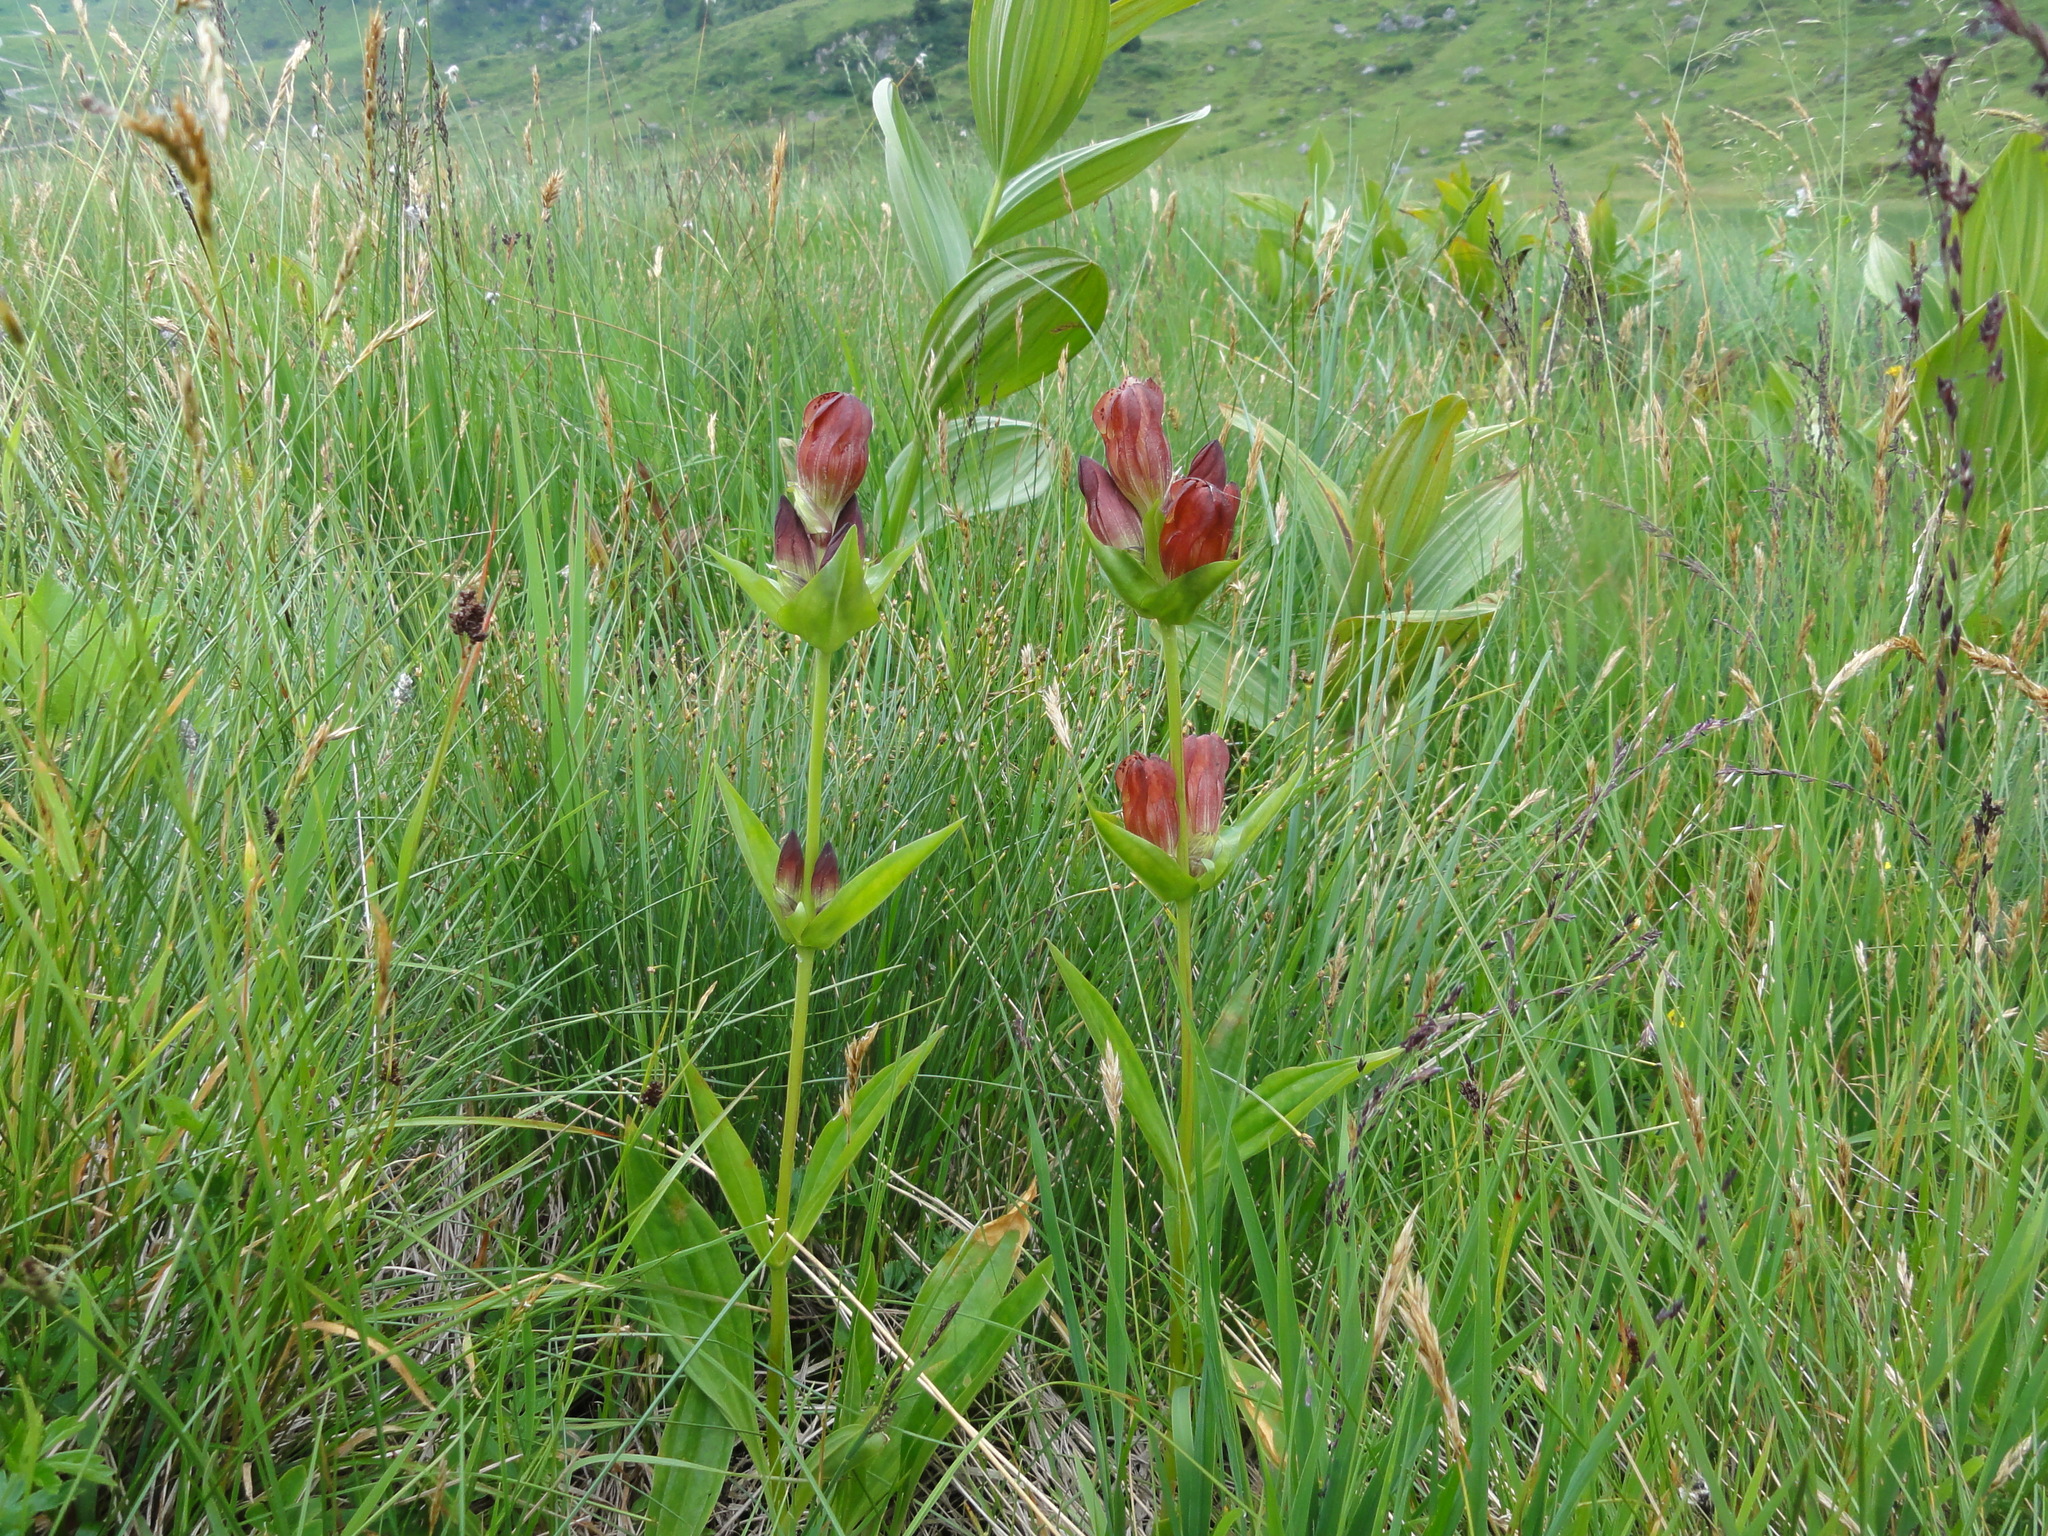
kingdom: Plantae
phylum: Tracheophyta
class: Magnoliopsida
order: Gentianales
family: Gentianaceae
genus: Gentiana
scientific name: Gentiana purpurea
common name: Purple gentian
